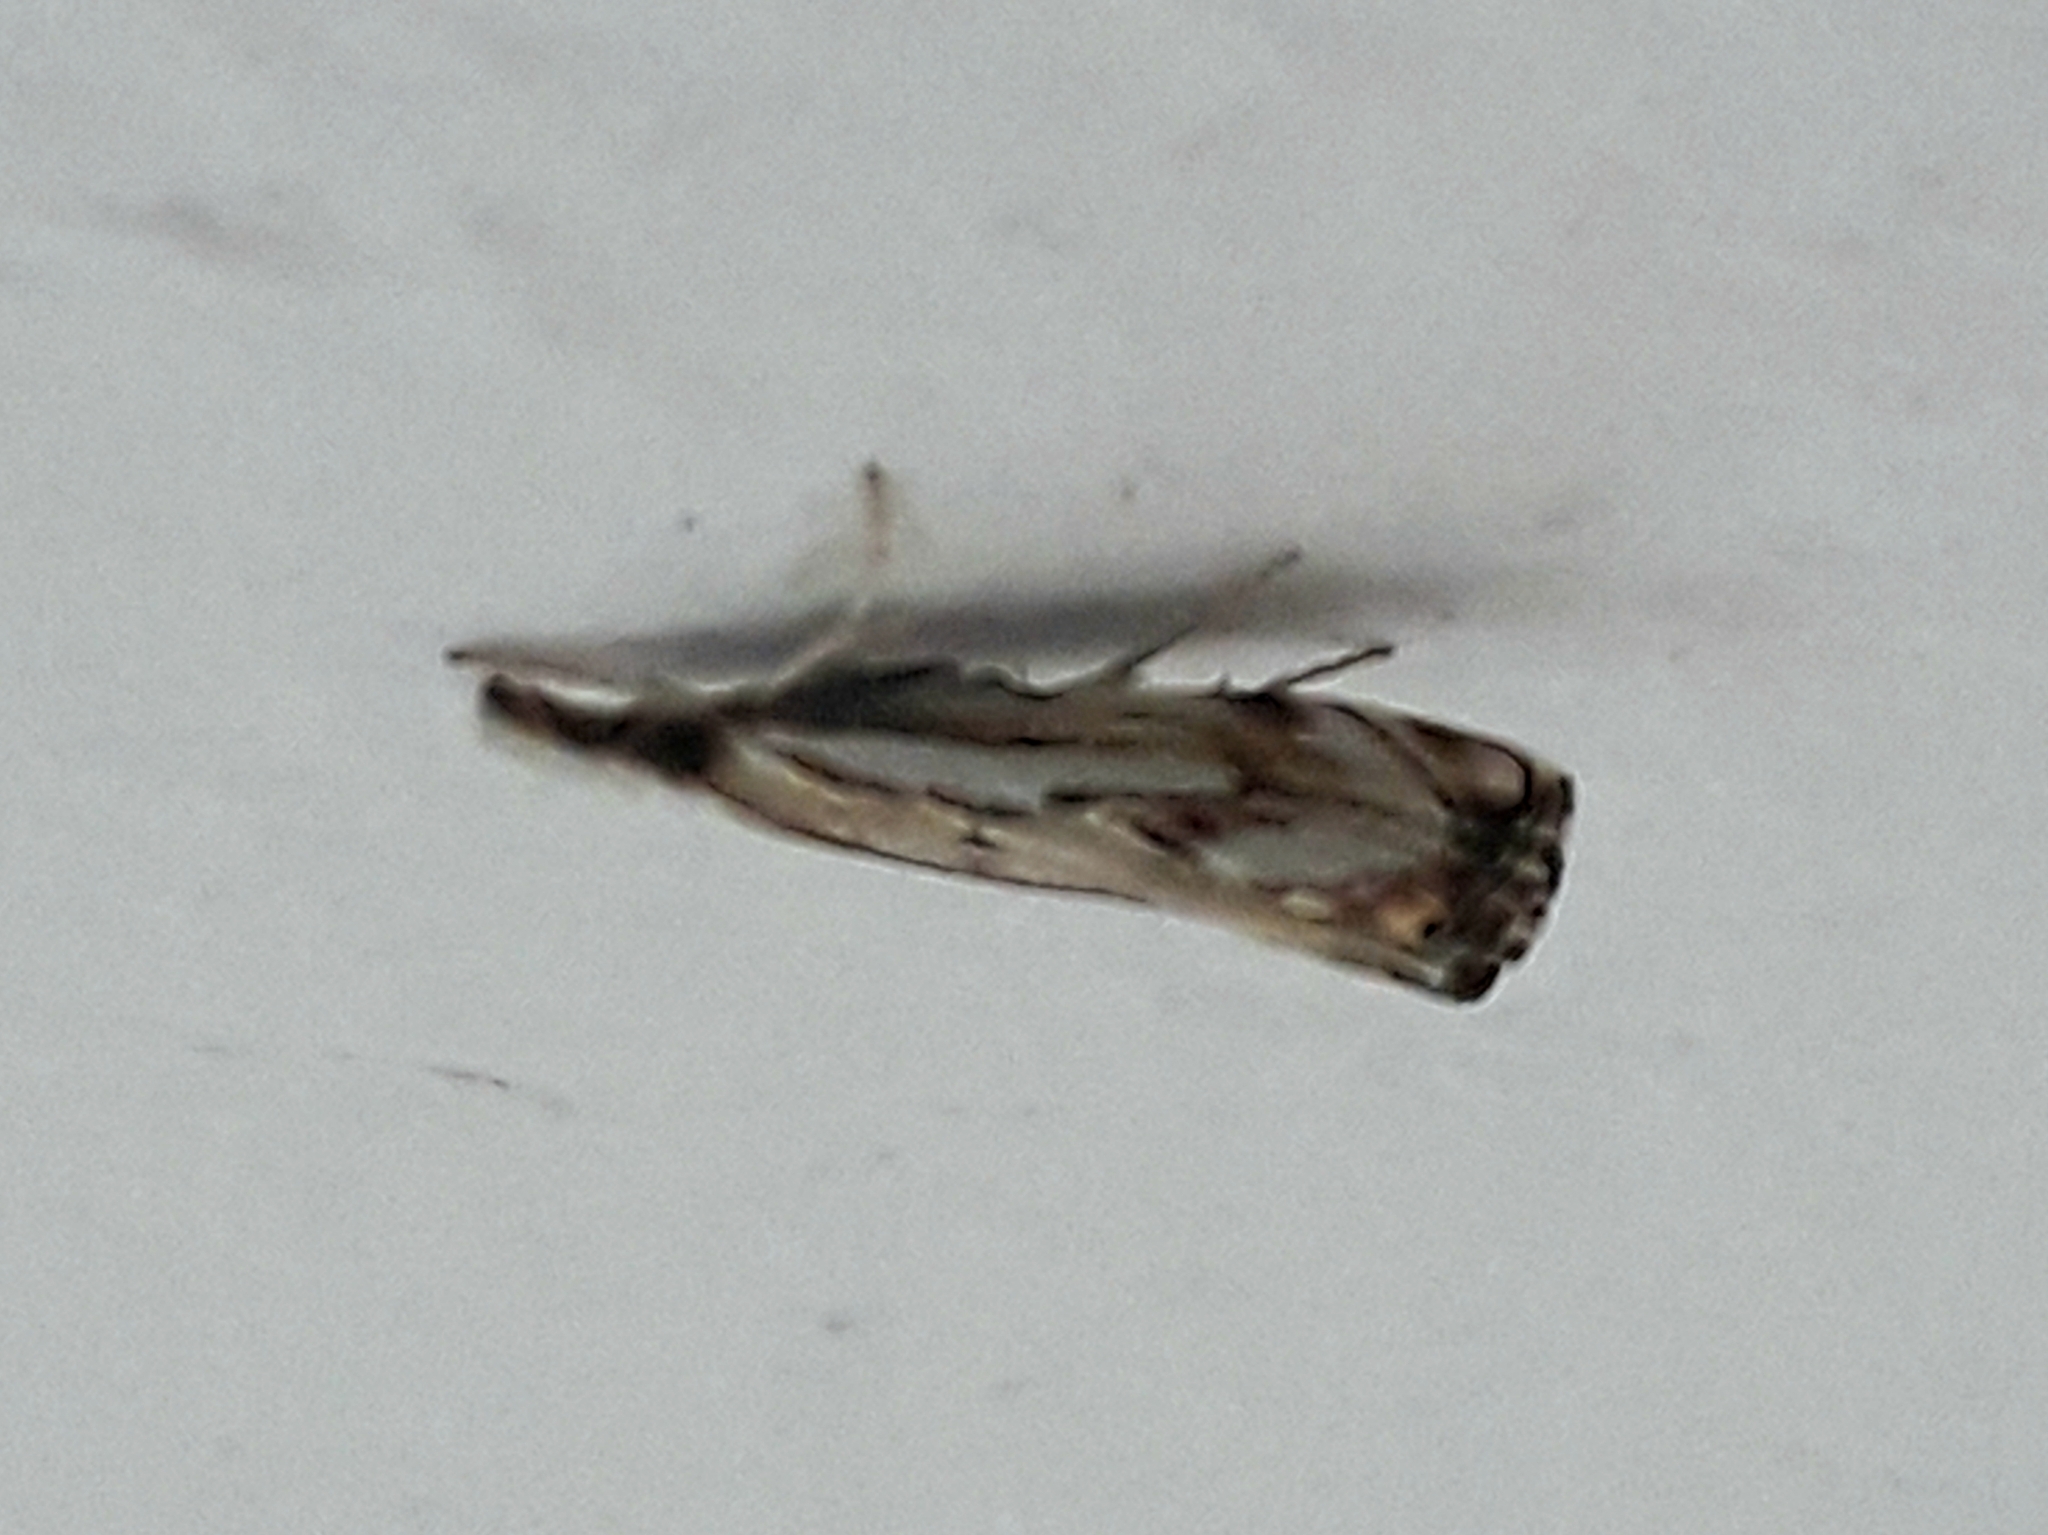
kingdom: Animalia
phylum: Arthropoda
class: Insecta
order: Lepidoptera
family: Crambidae
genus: Catoptria
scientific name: Catoptria falsella
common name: Chequered grass-veneer
